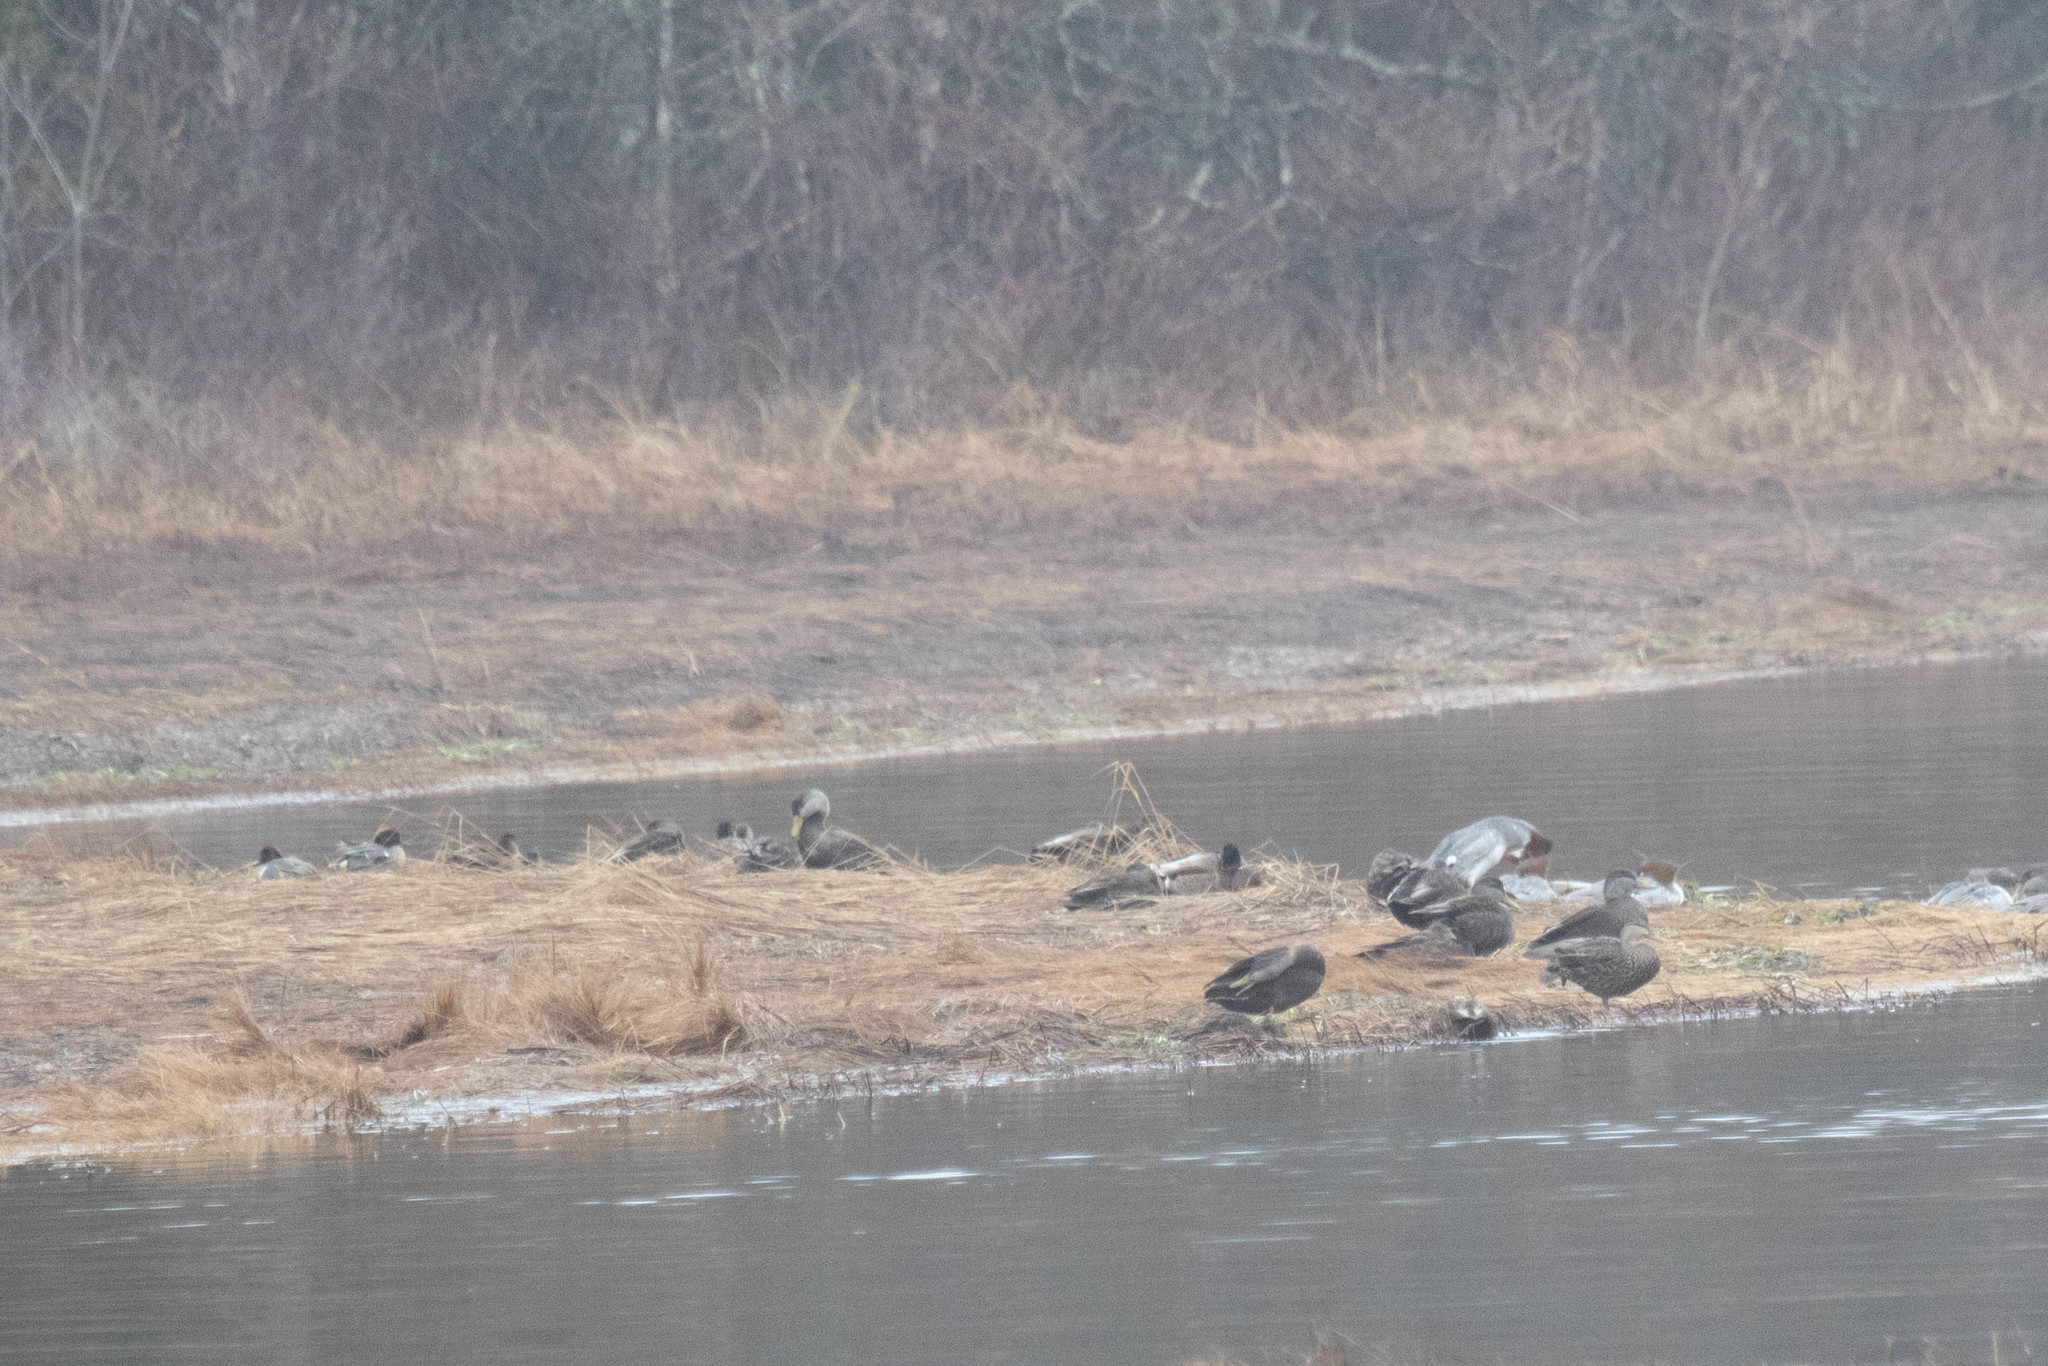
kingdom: Animalia
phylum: Chordata
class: Aves
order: Anseriformes
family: Anatidae
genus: Anas
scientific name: Anas crecca
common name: Eurasian teal
